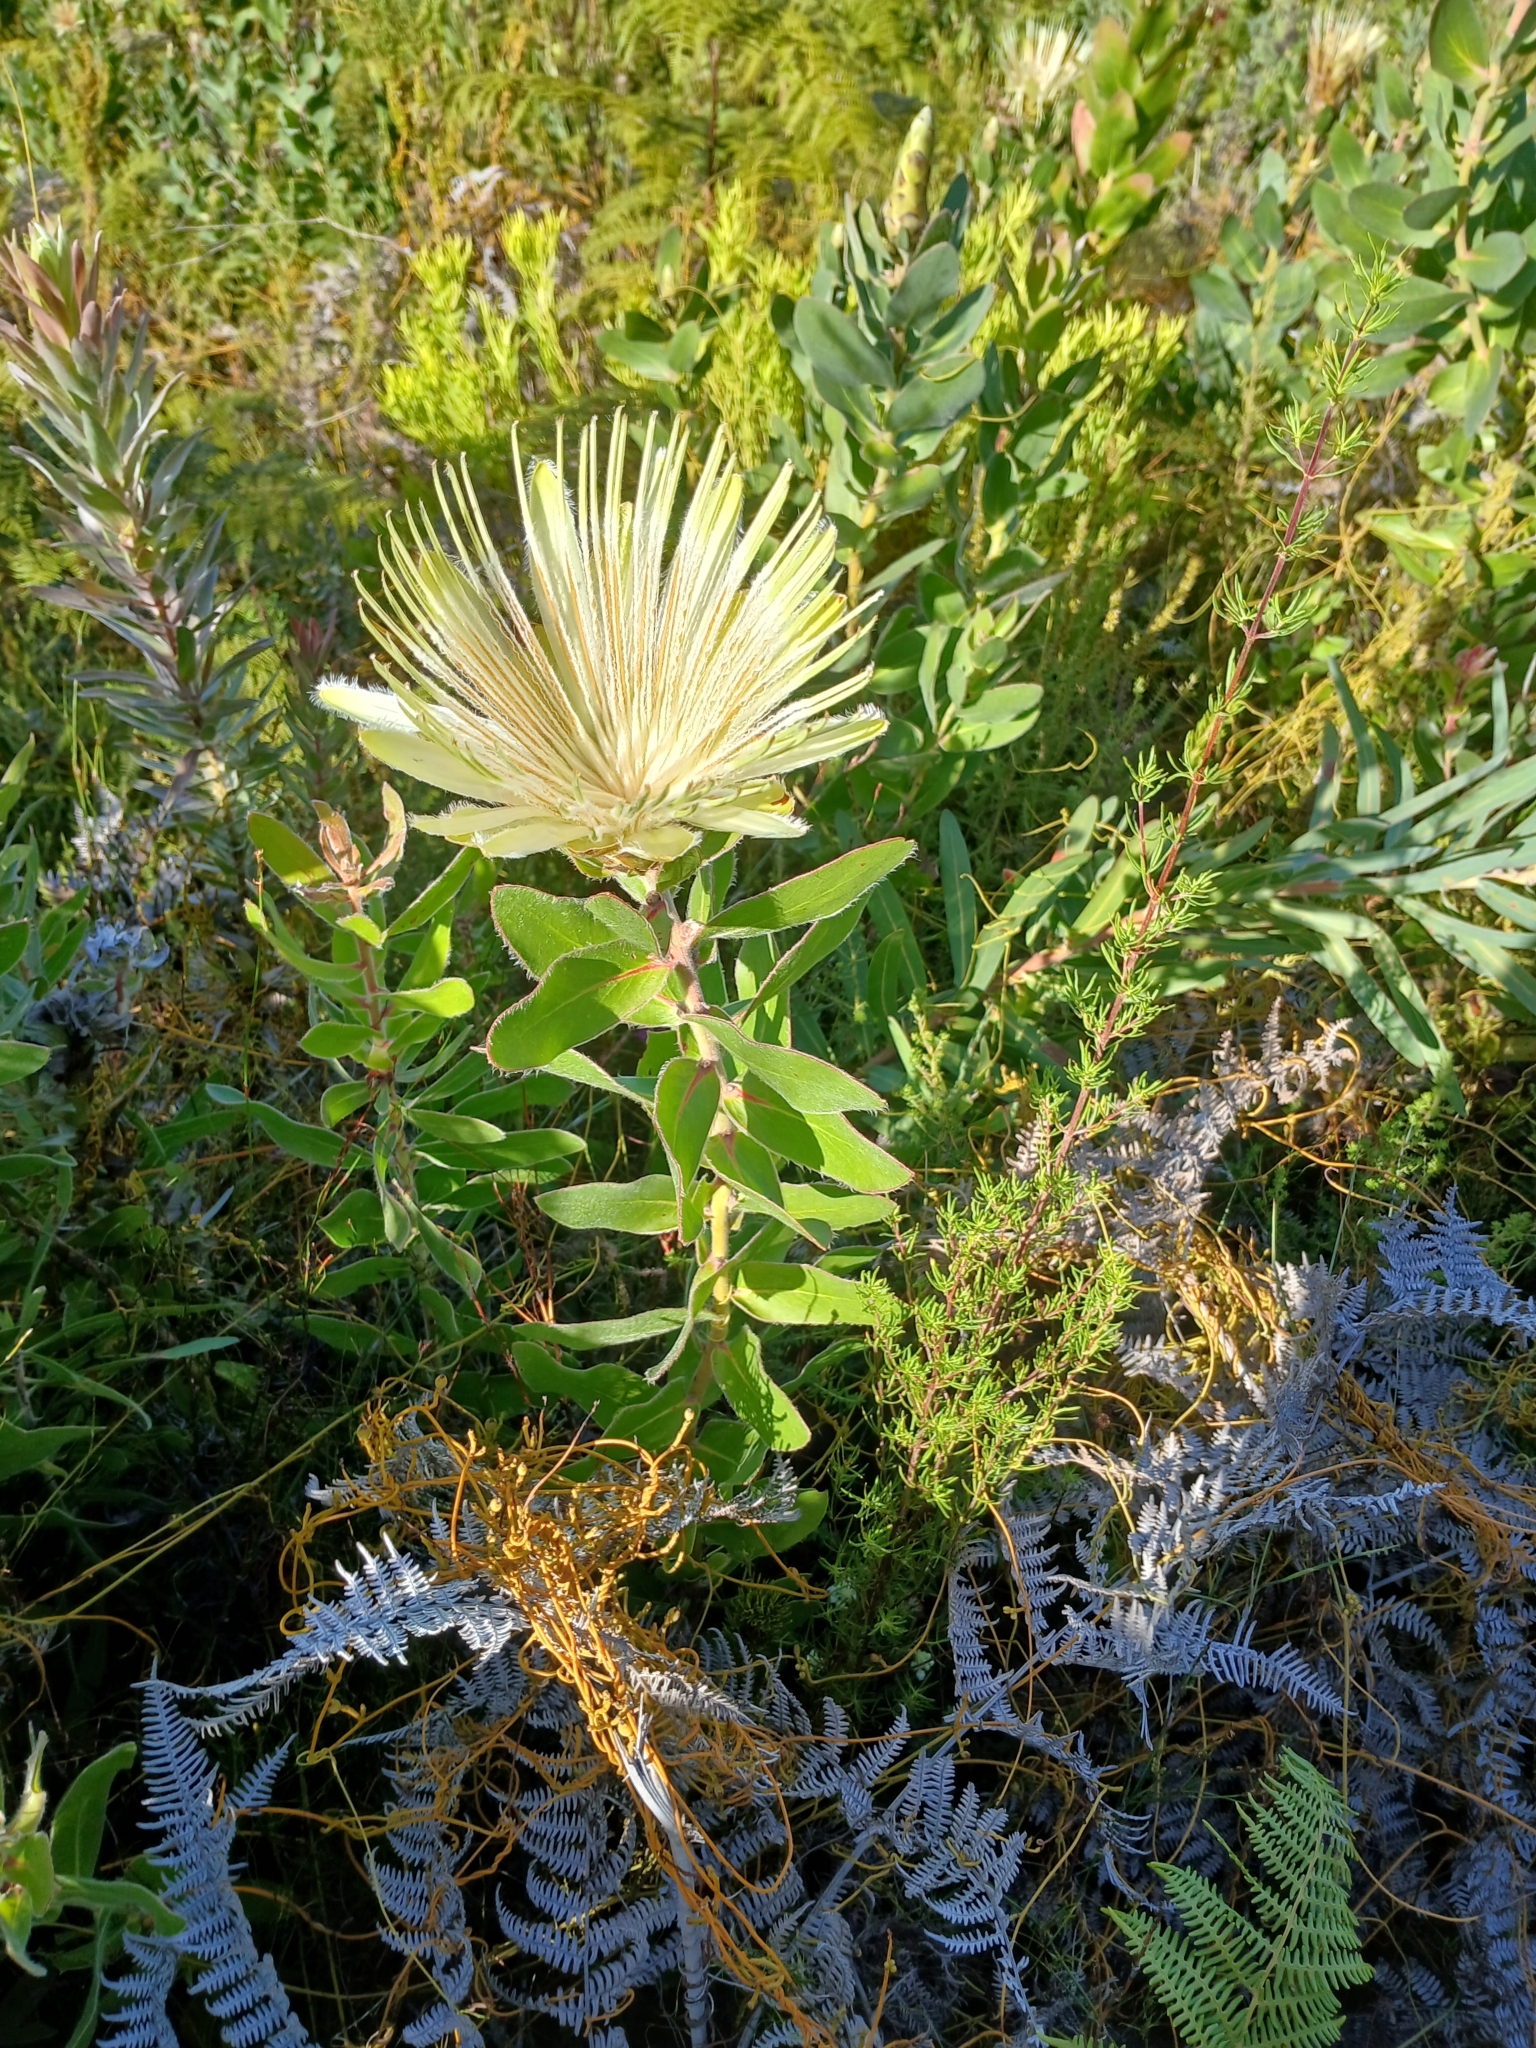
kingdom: Plantae
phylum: Tracheophyta
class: Magnoliopsida
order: Proteales
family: Proteaceae
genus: Protea
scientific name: Protea aurea
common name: Shuttlecock sugarbush
